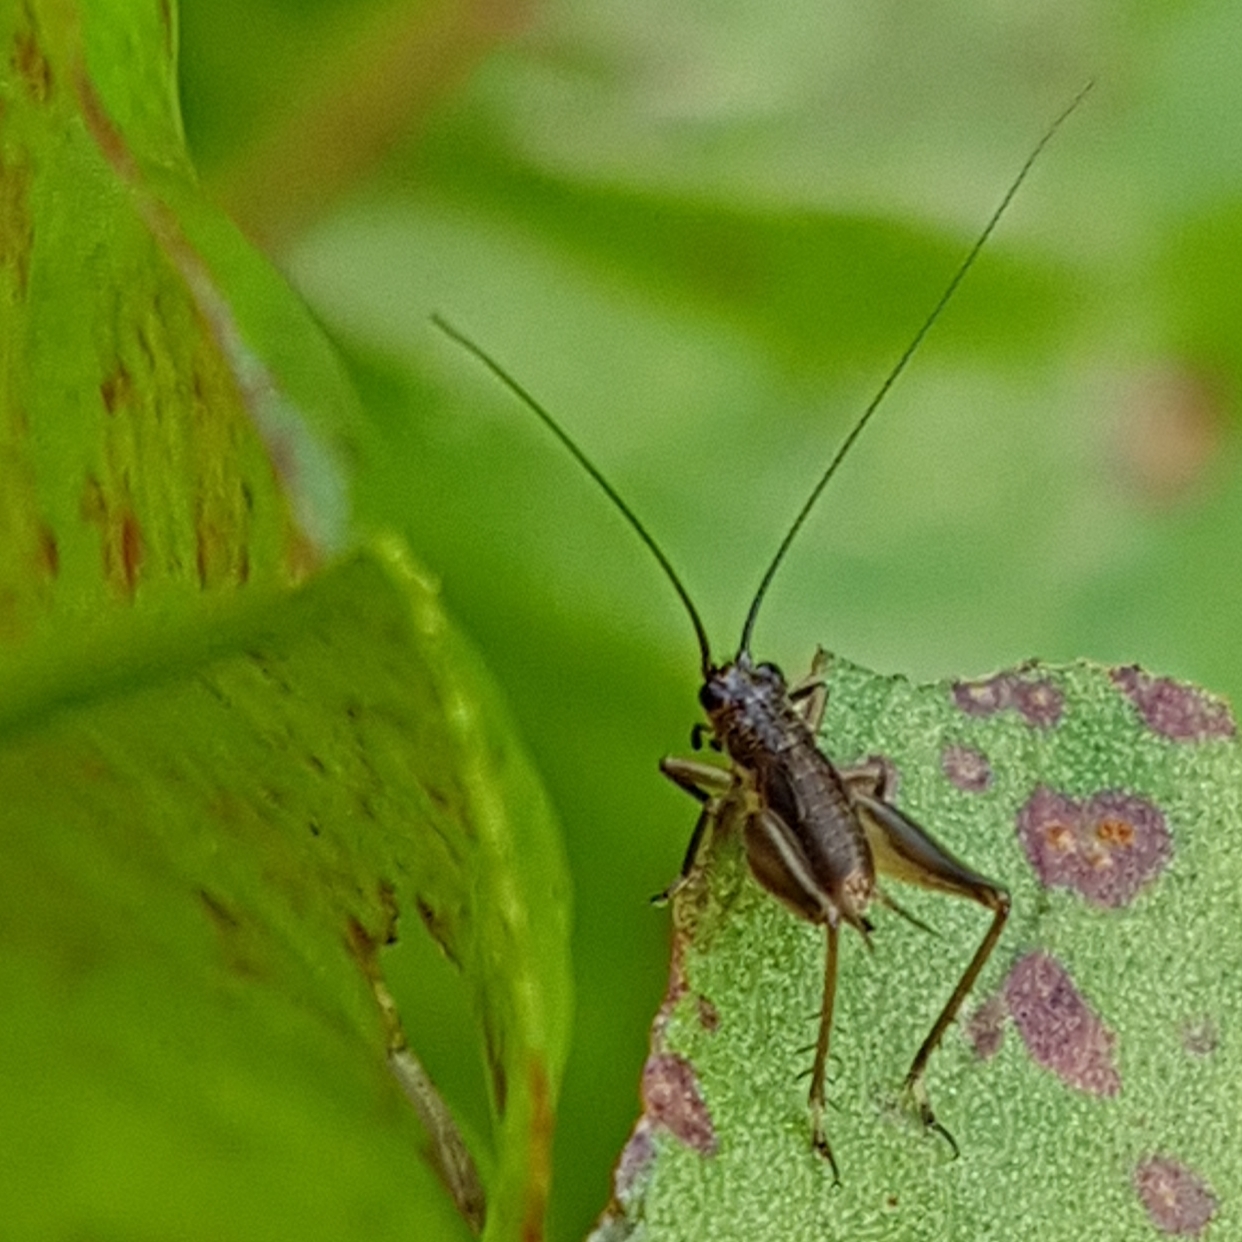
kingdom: Animalia
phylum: Arthropoda
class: Insecta
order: Orthoptera
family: Trigonidiidae
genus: Trigonidium
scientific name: Trigonidium cicindeloides
